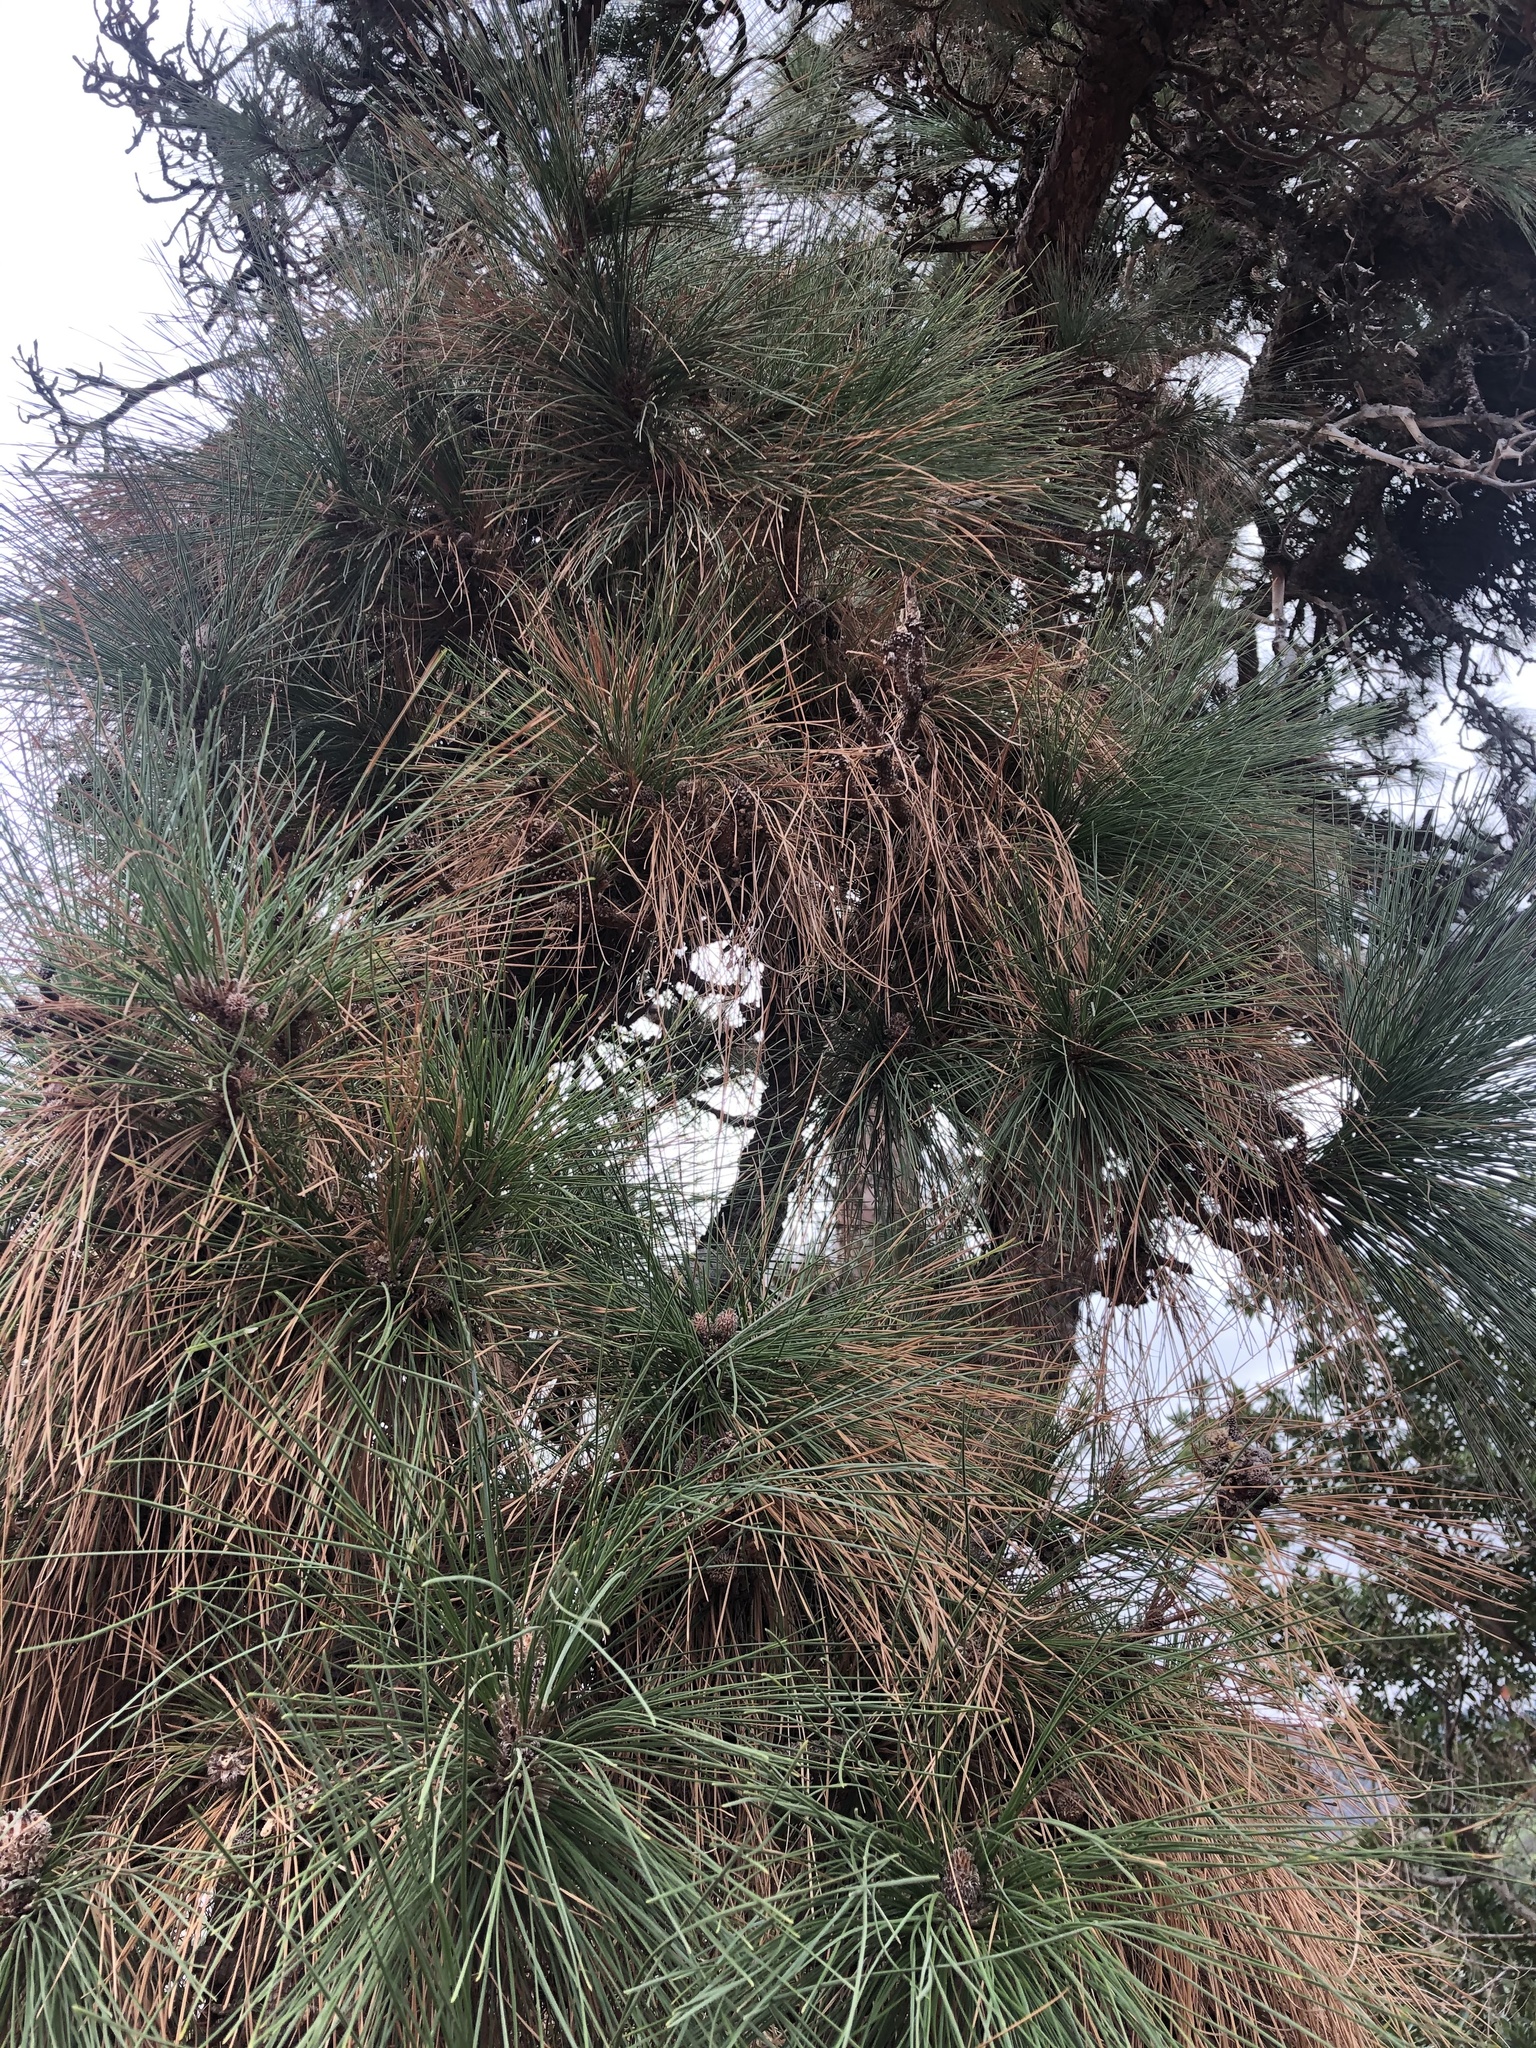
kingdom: Plantae
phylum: Tracheophyta
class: Pinopsida
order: Pinales
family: Pinaceae
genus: Pinus
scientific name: Pinus canariensis
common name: Canary islands pine
